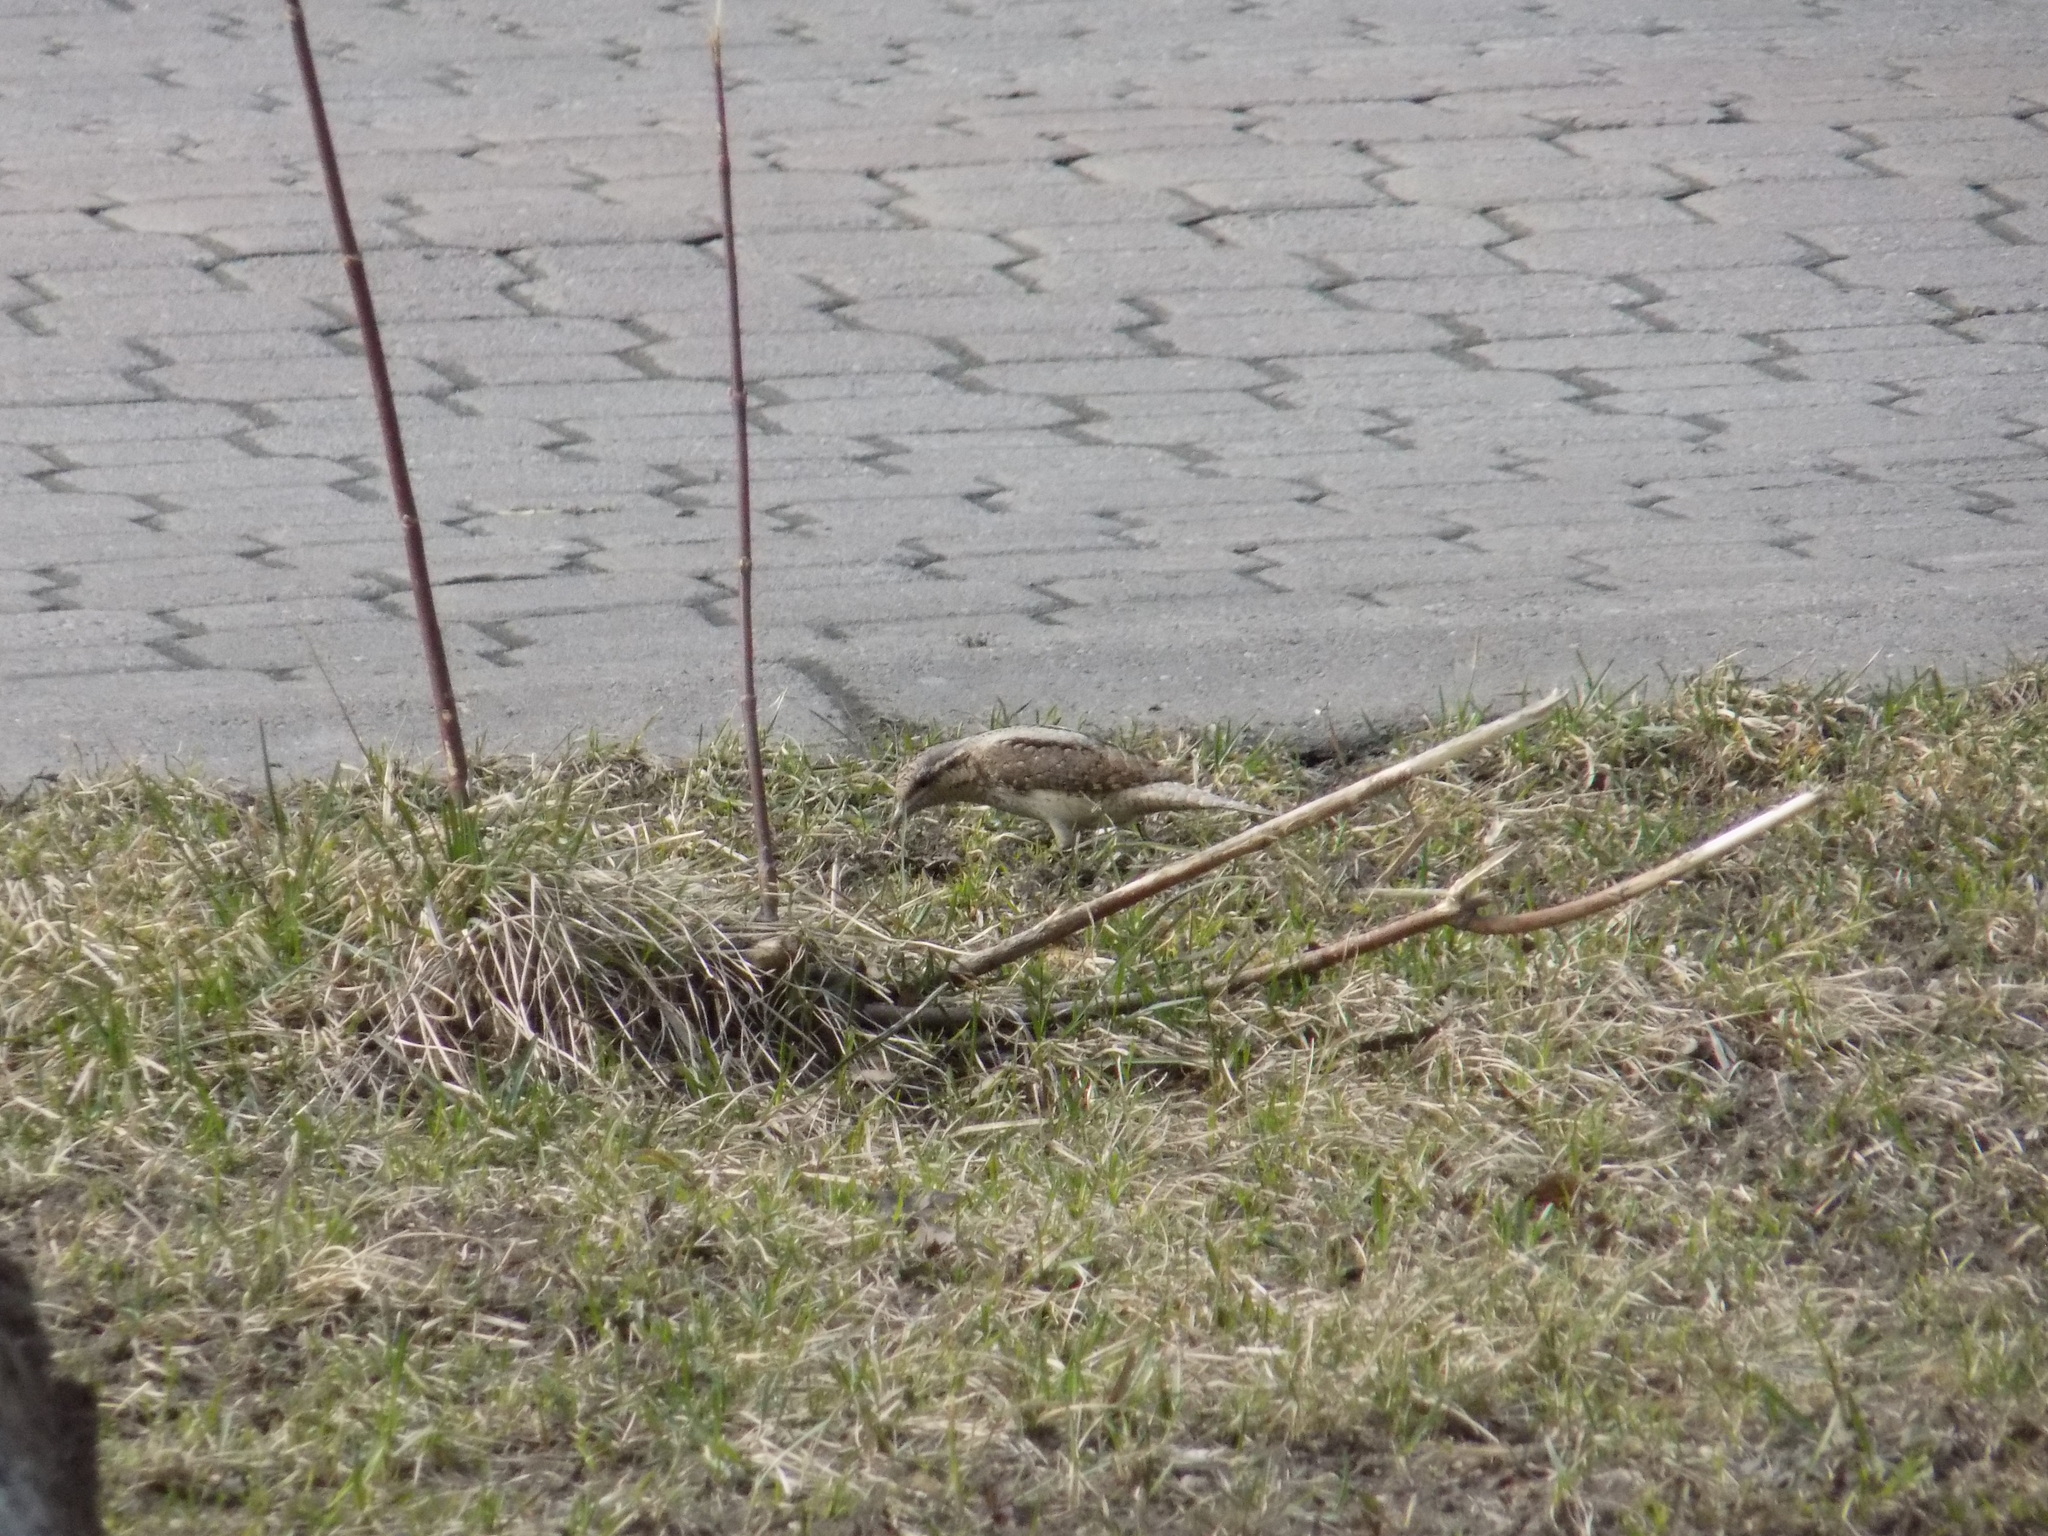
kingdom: Animalia
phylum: Chordata
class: Aves
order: Piciformes
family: Picidae
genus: Jynx
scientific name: Jynx torquilla
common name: Eurasian wryneck
